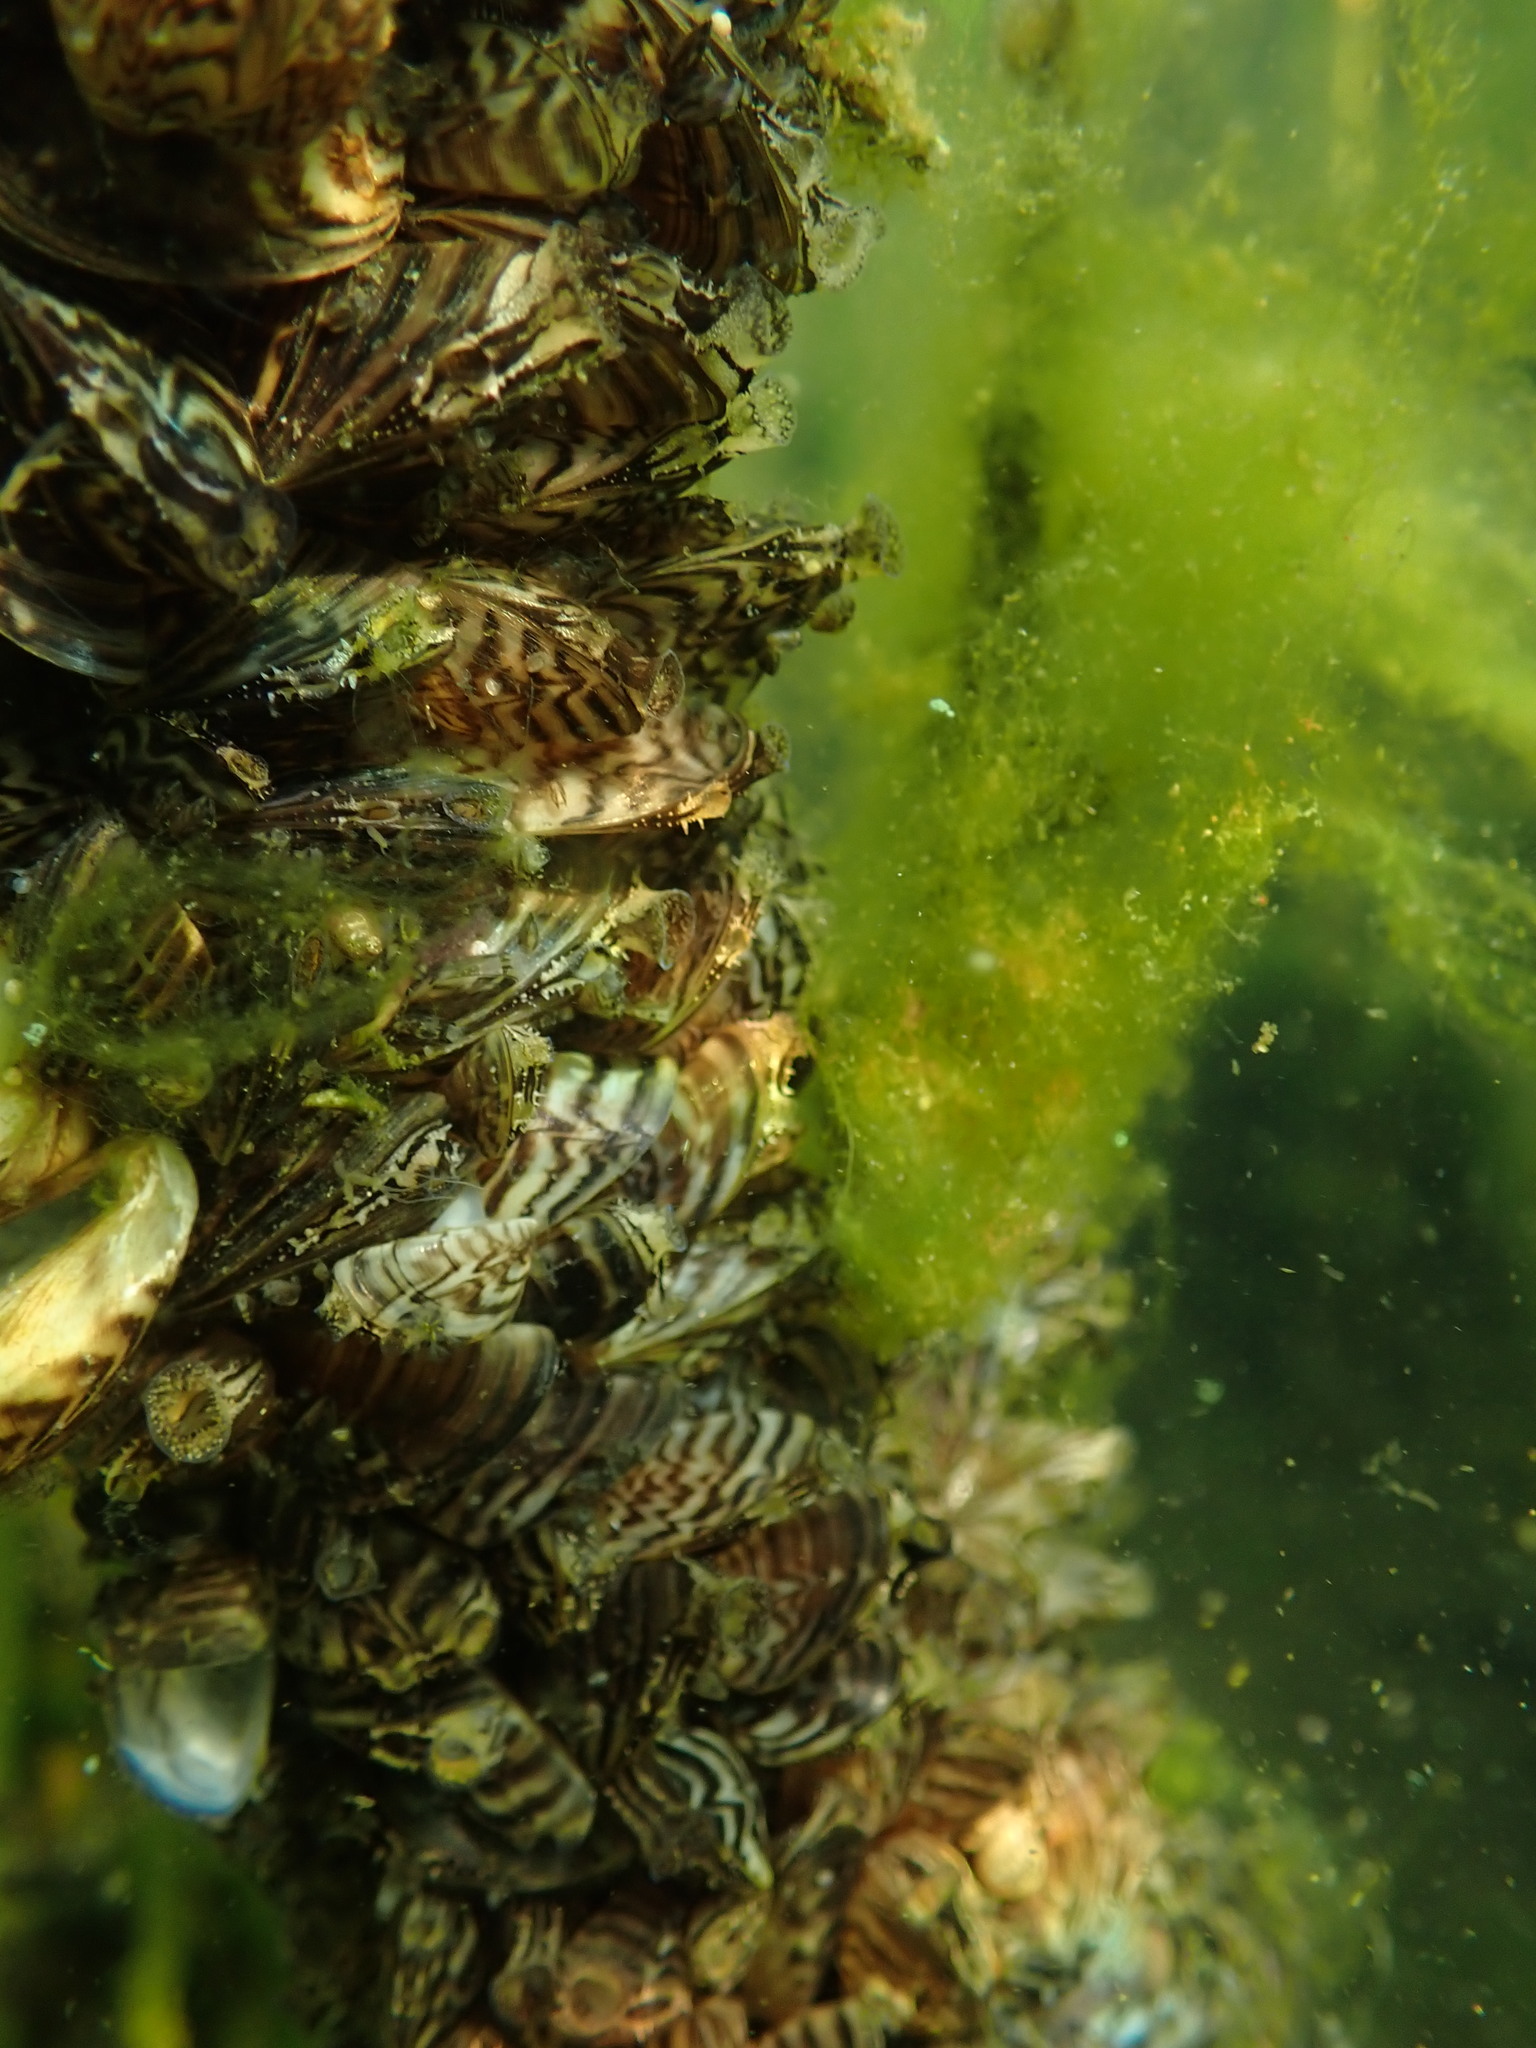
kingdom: Animalia
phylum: Mollusca
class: Bivalvia
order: Myida
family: Dreissenidae
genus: Dreissena
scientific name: Dreissena polymorpha
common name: Zebra mussel
